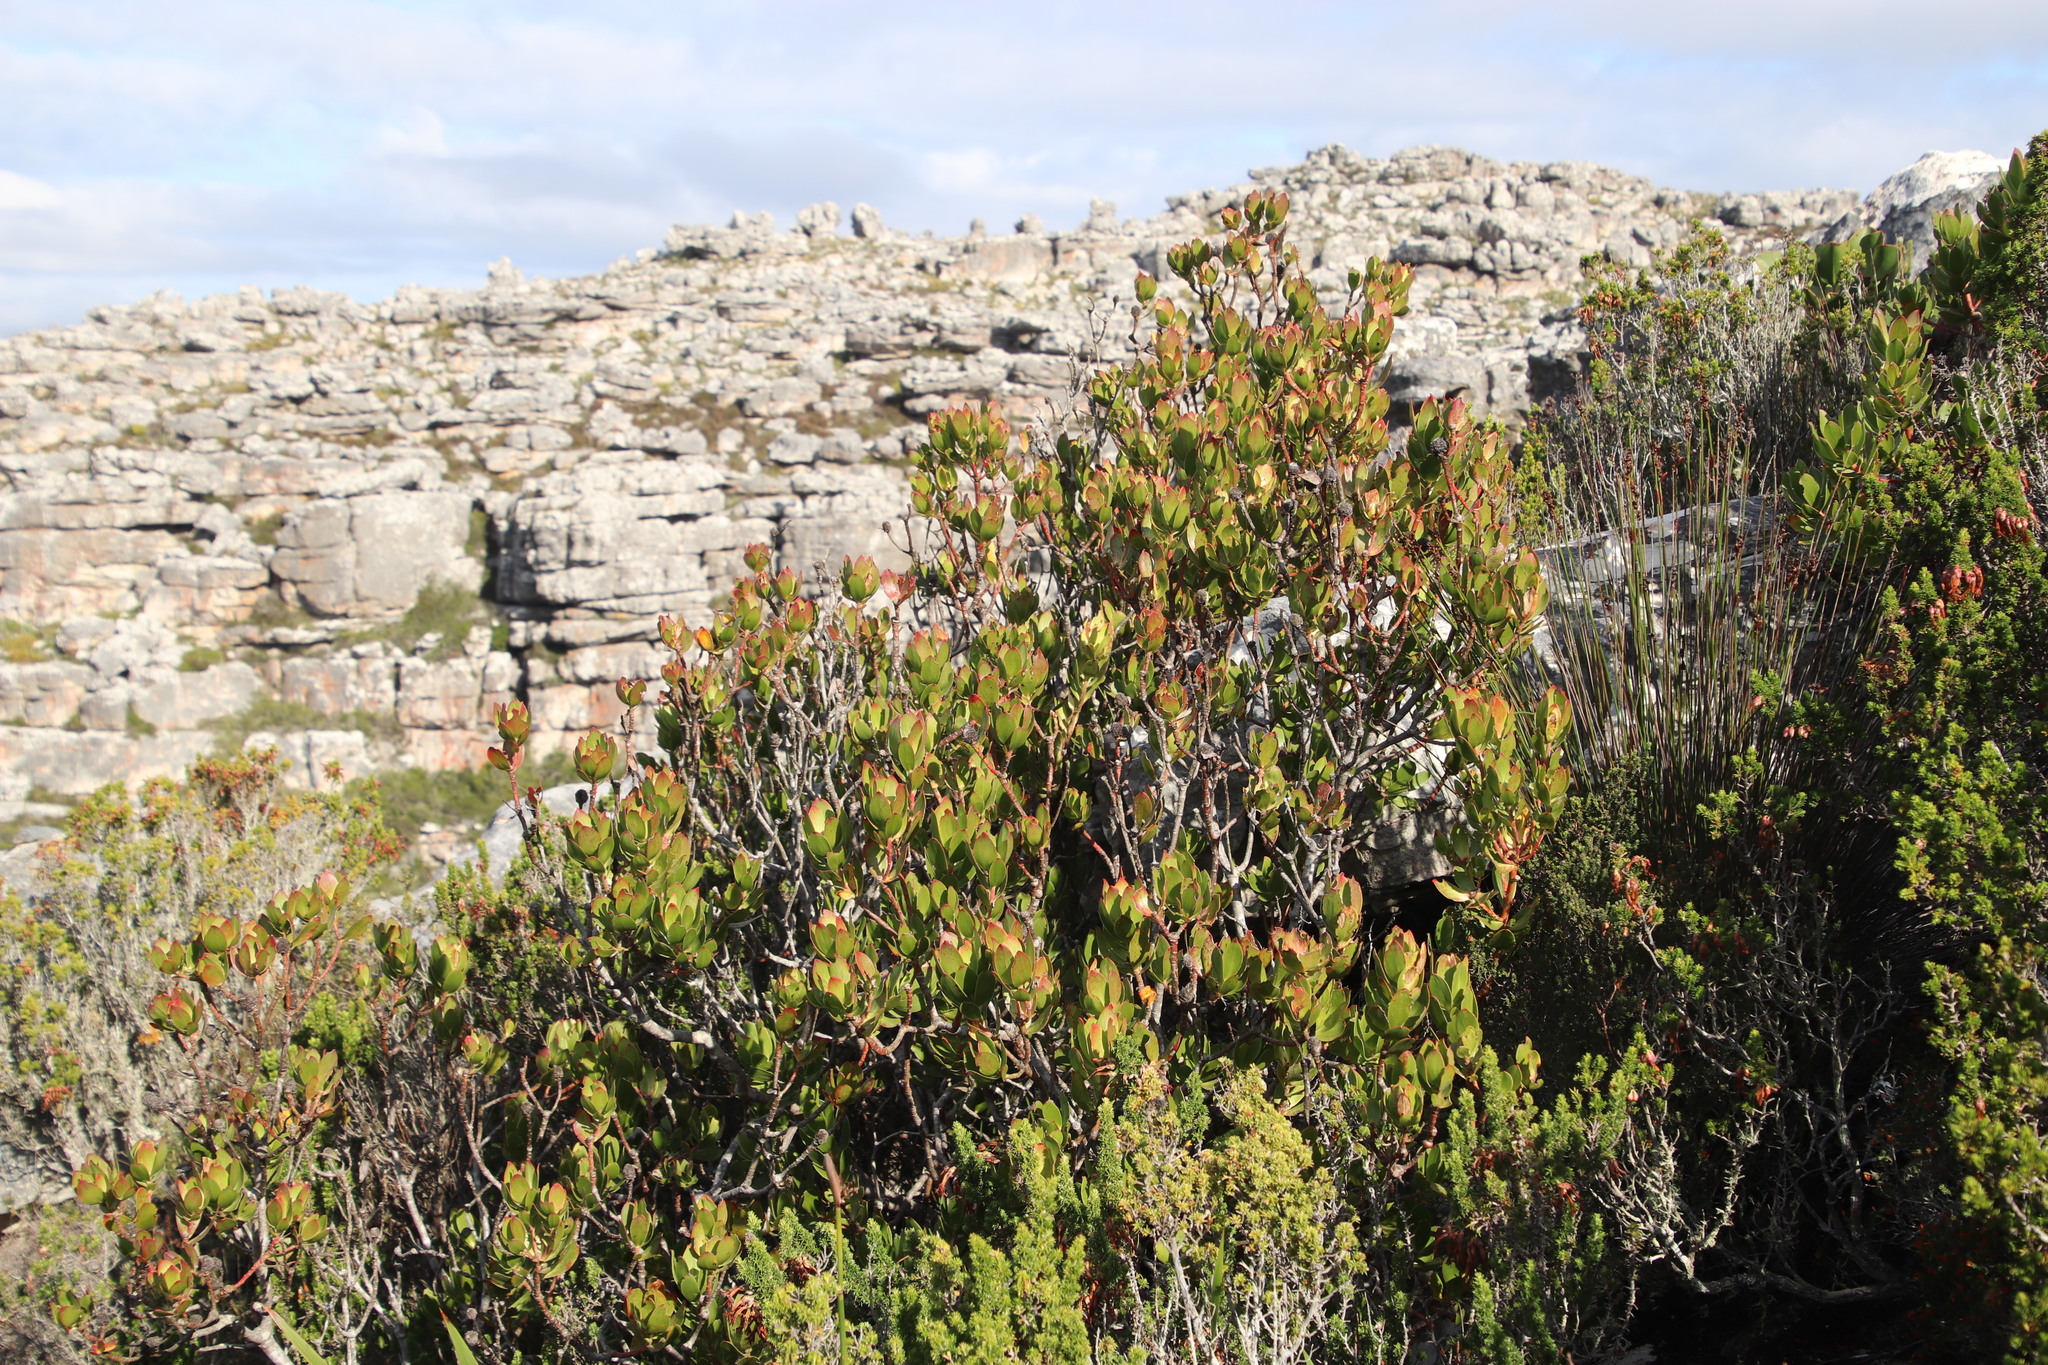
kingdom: Plantae
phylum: Tracheophyta
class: Magnoliopsida
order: Proteales
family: Proteaceae
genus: Leucadendron
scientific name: Leucadendron strobilinum
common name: Mountain rose
